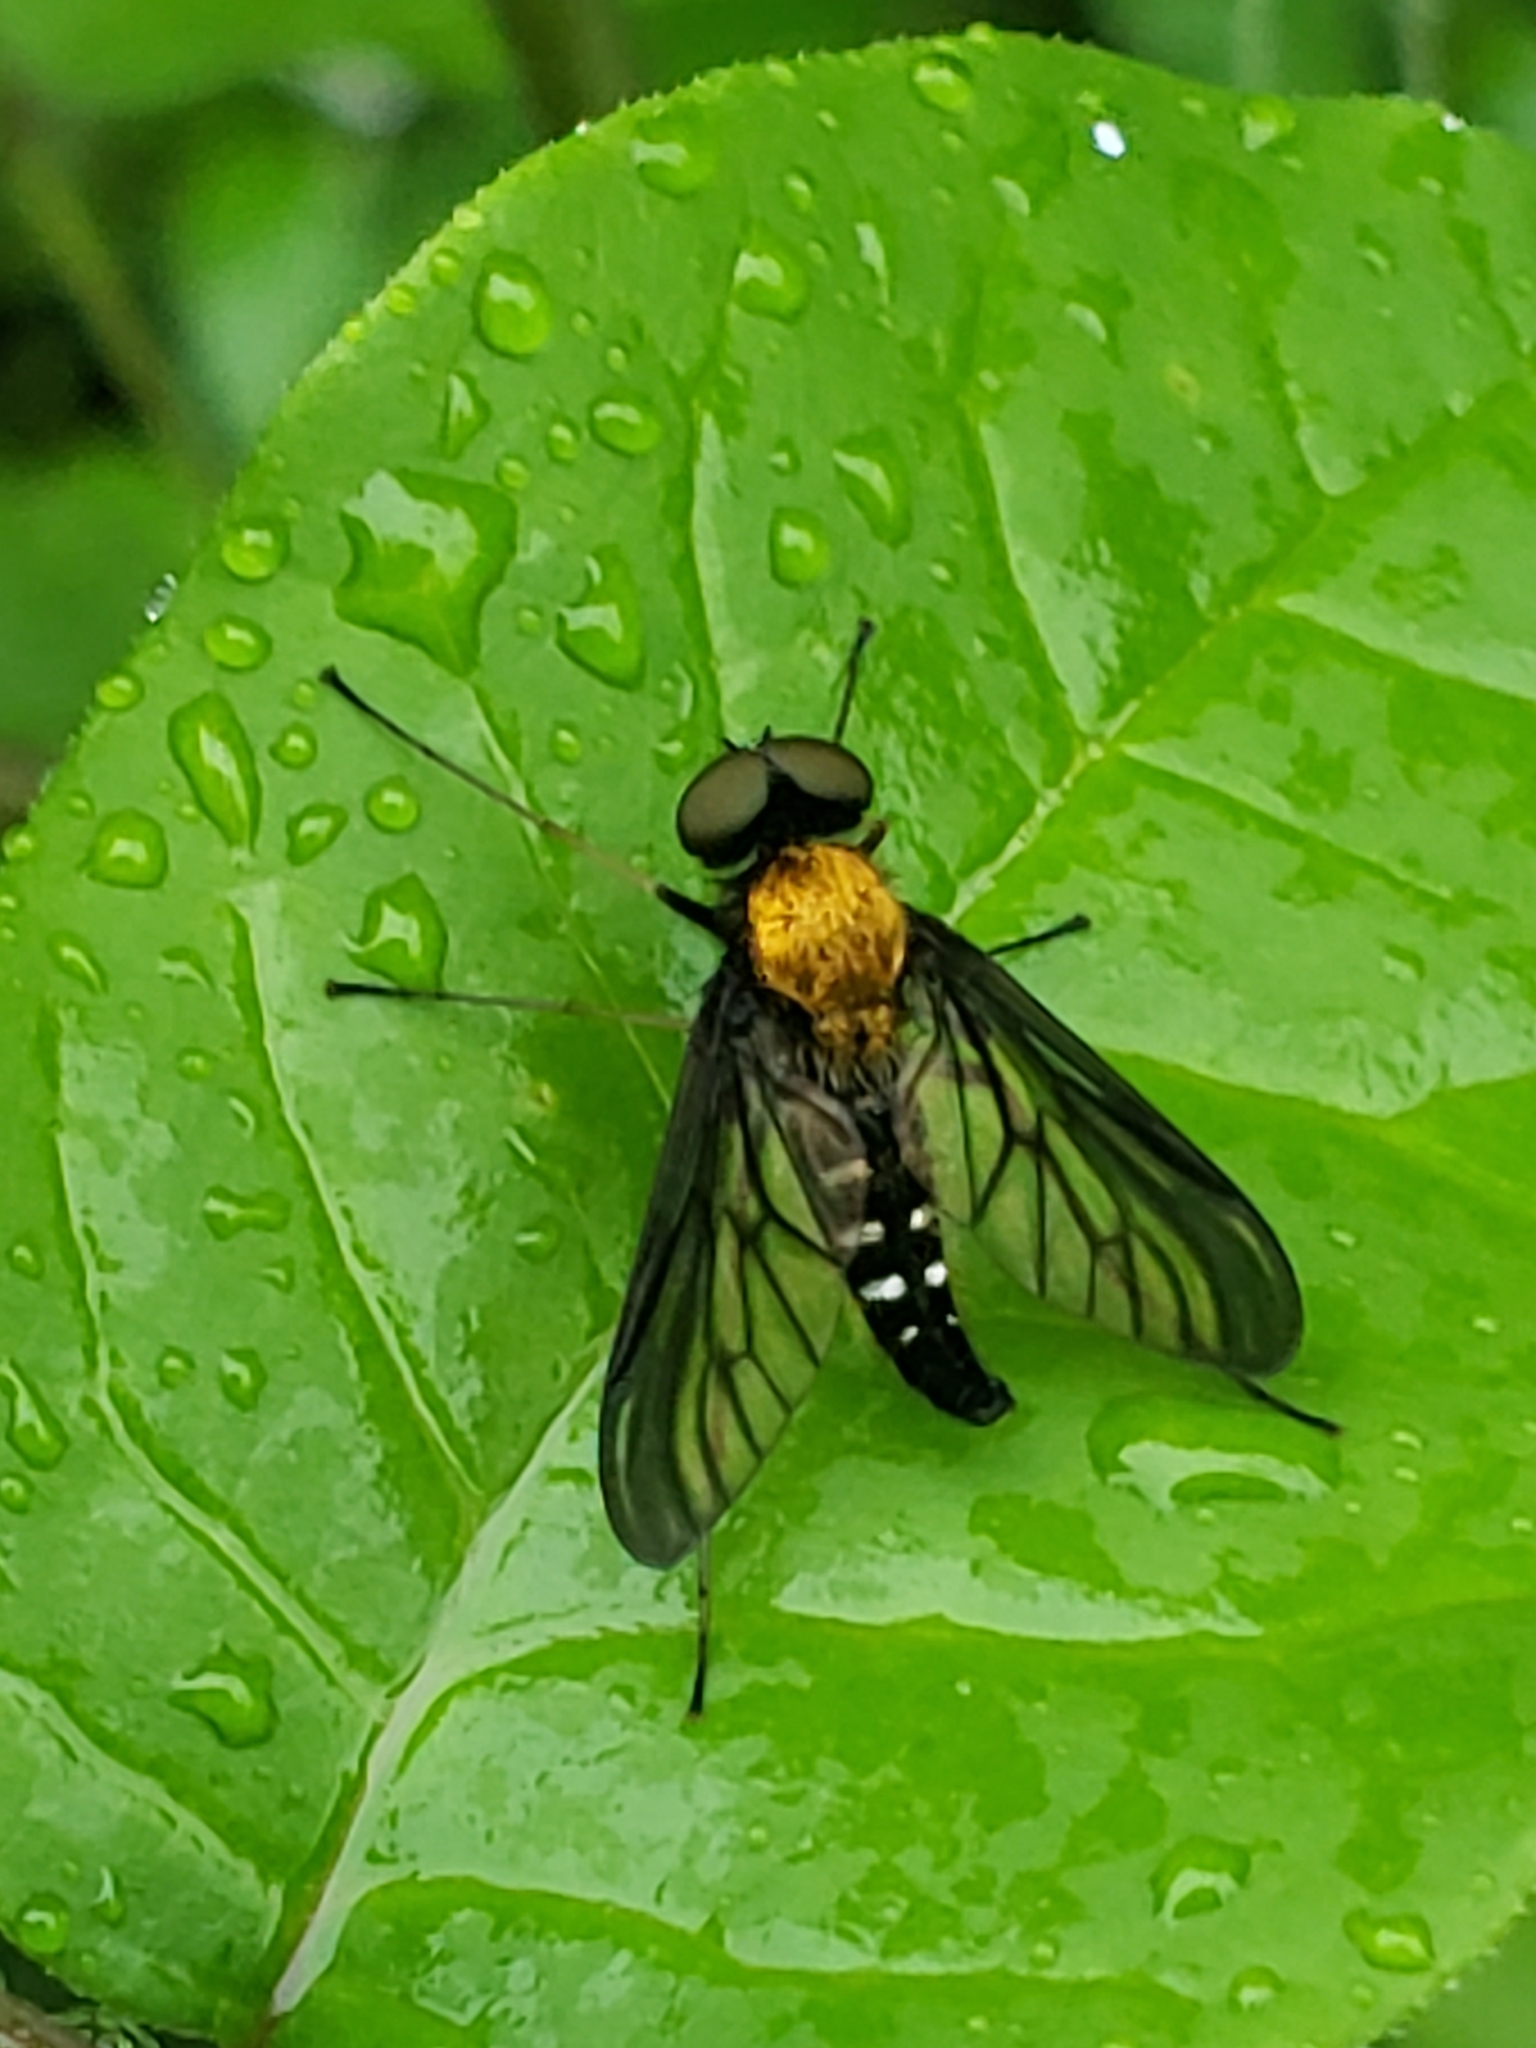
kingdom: Animalia
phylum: Arthropoda
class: Insecta
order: Diptera
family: Rhagionidae
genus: Chrysopilus
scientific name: Chrysopilus thoracicus
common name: Golden-backed snipe fly
